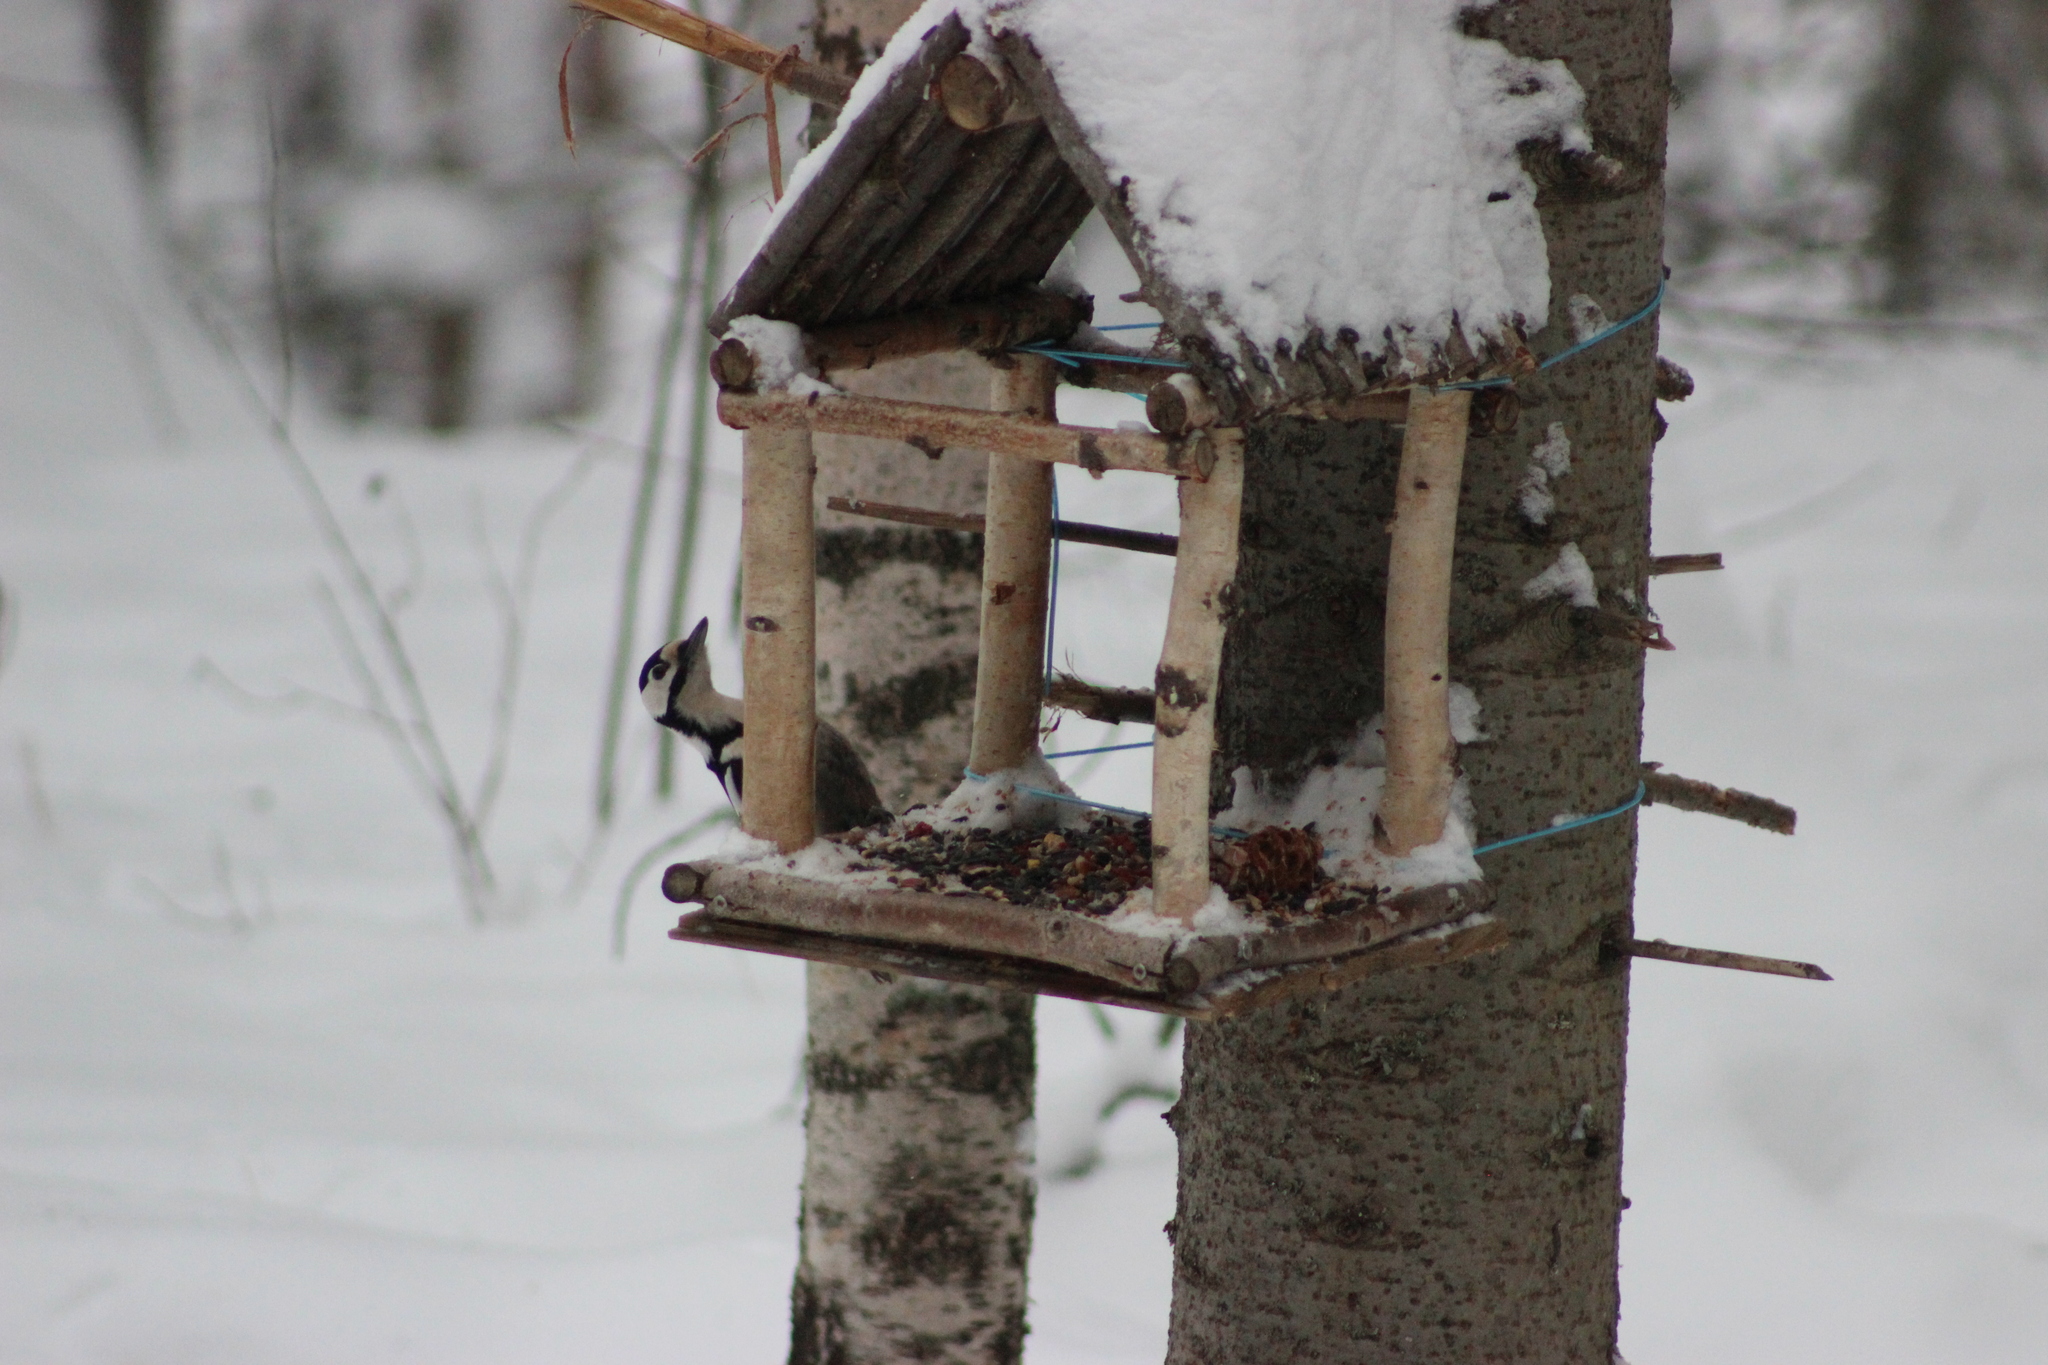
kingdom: Animalia
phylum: Chordata
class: Aves
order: Piciformes
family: Picidae
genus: Dendrocopos
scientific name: Dendrocopos major
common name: Great spotted woodpecker
